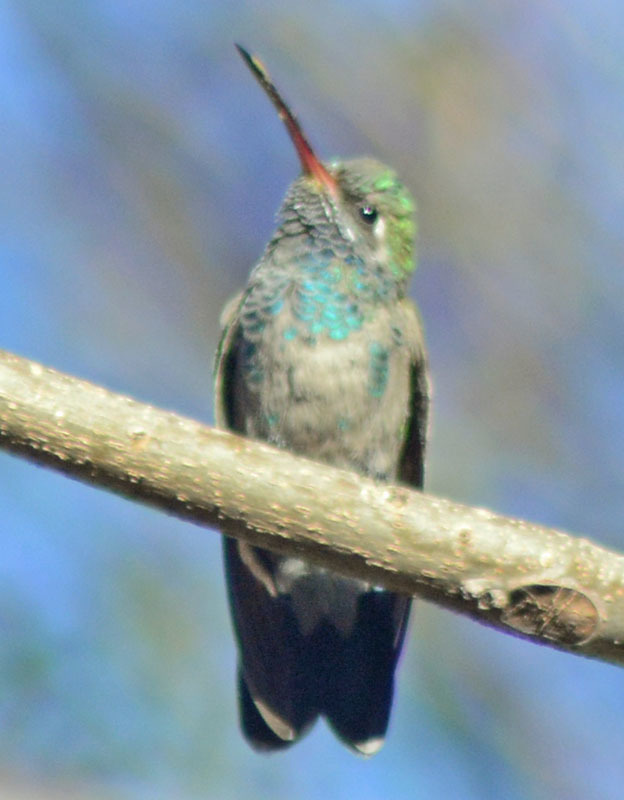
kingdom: Animalia
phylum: Chordata
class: Aves
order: Apodiformes
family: Trochilidae
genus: Cynanthus
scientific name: Cynanthus latirostris
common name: Broad-billed hummingbird
